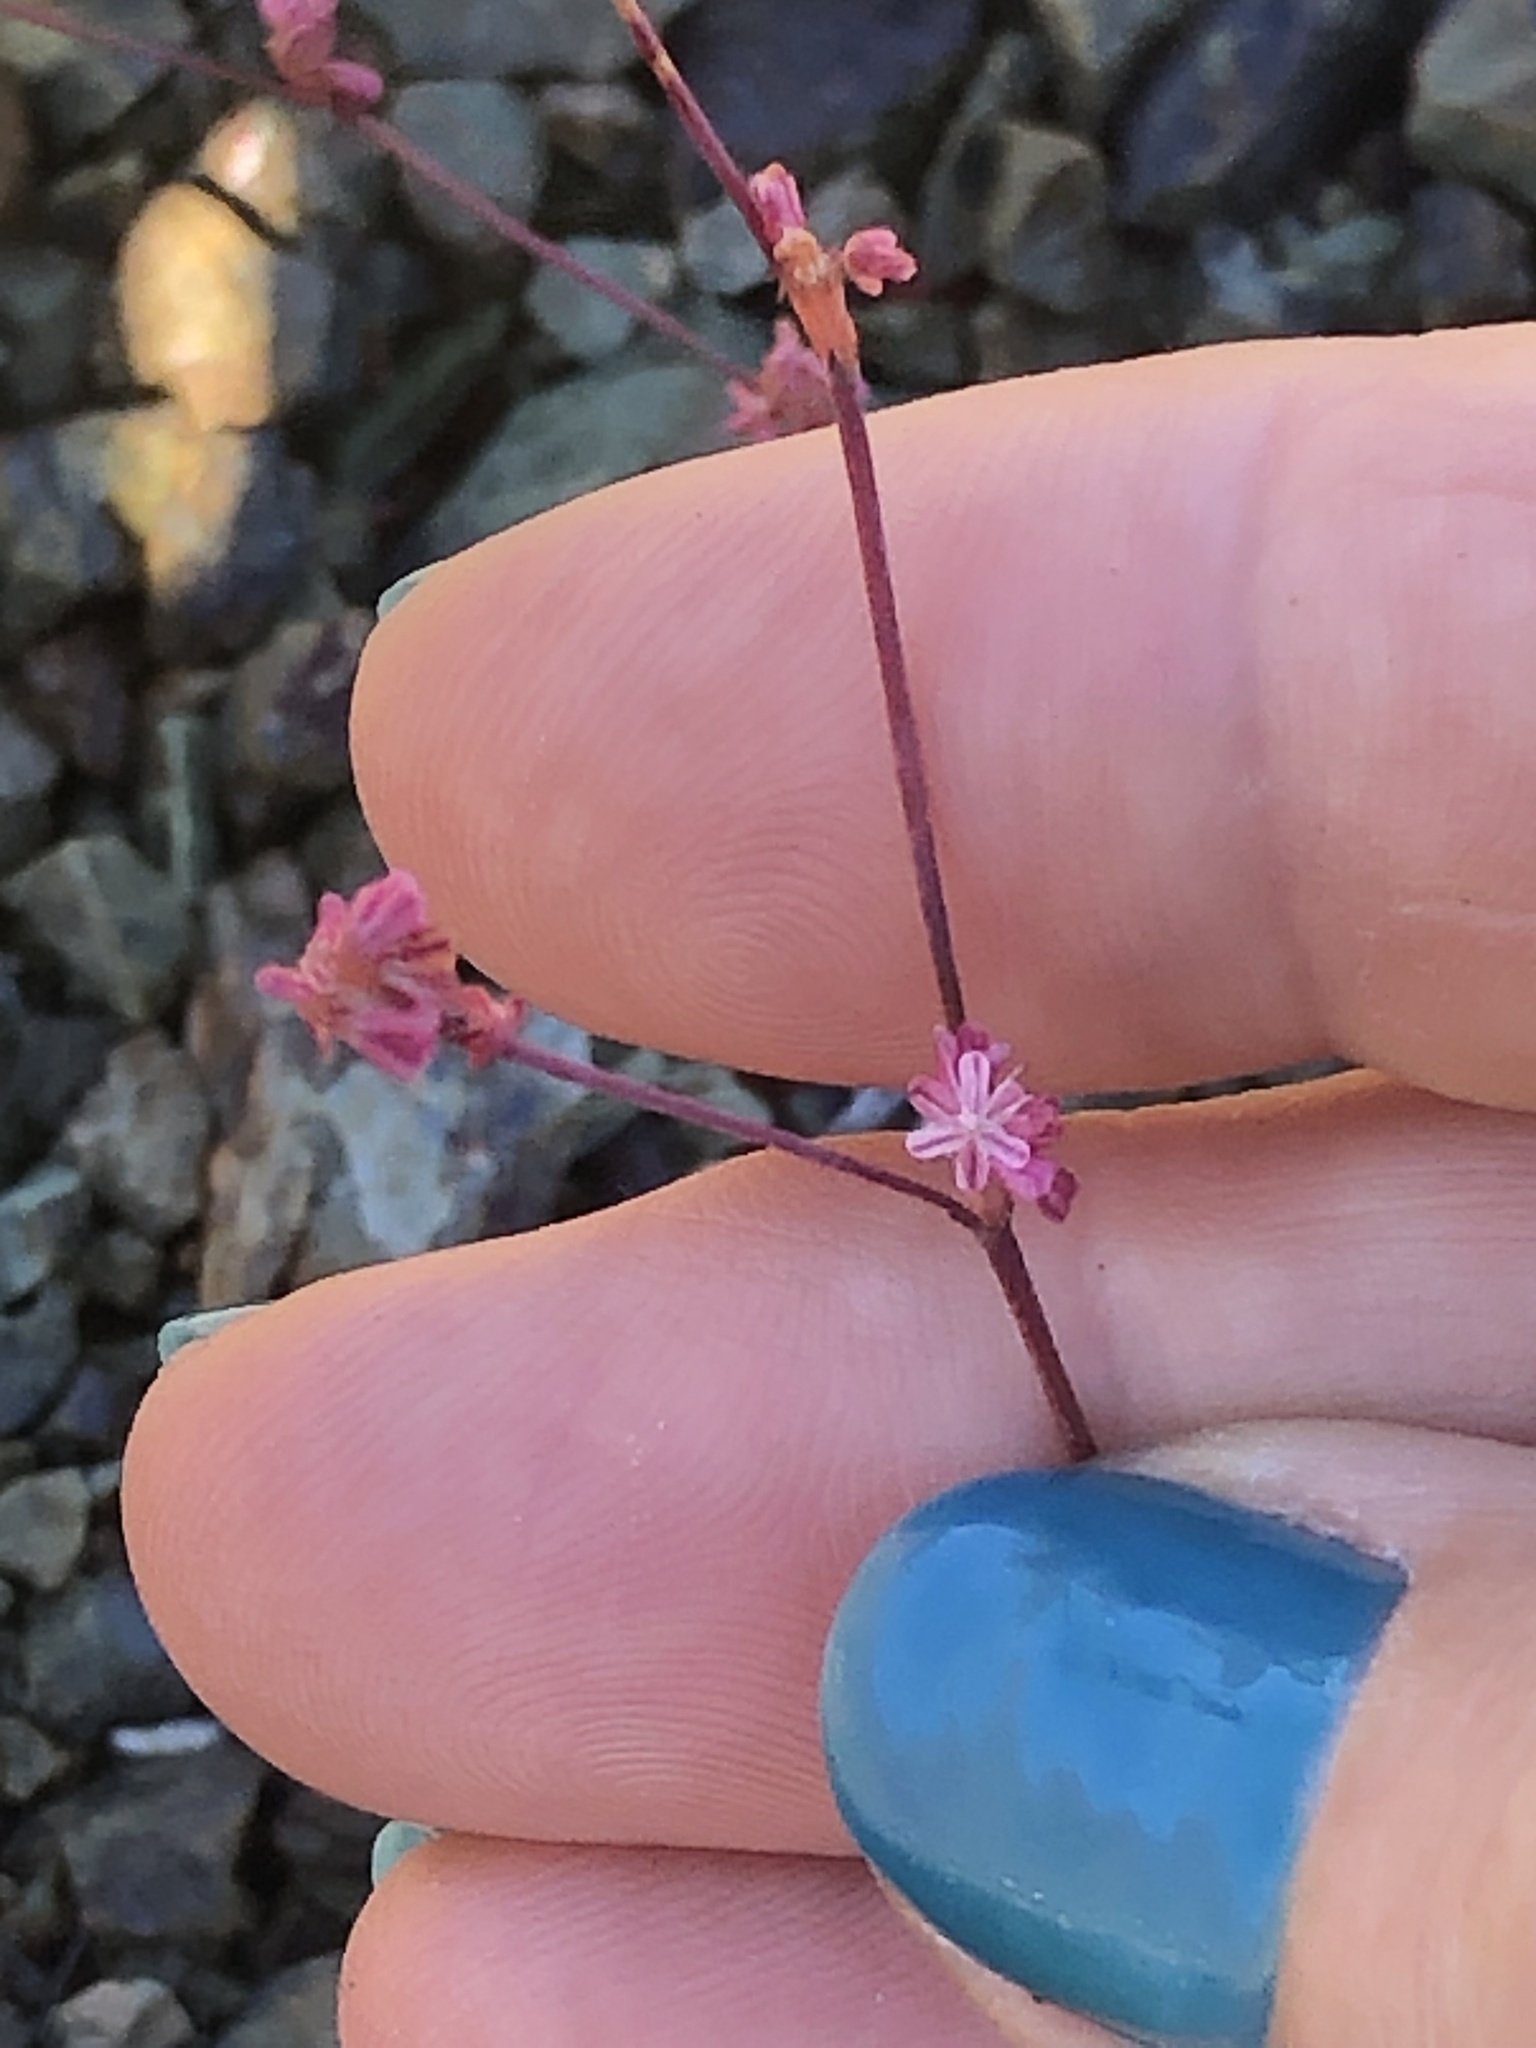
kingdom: Plantae
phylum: Tracheophyta
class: Magnoliopsida
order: Caryophyllales
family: Polygonaceae
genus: Eriogonum
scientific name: Eriogonum luteolum
